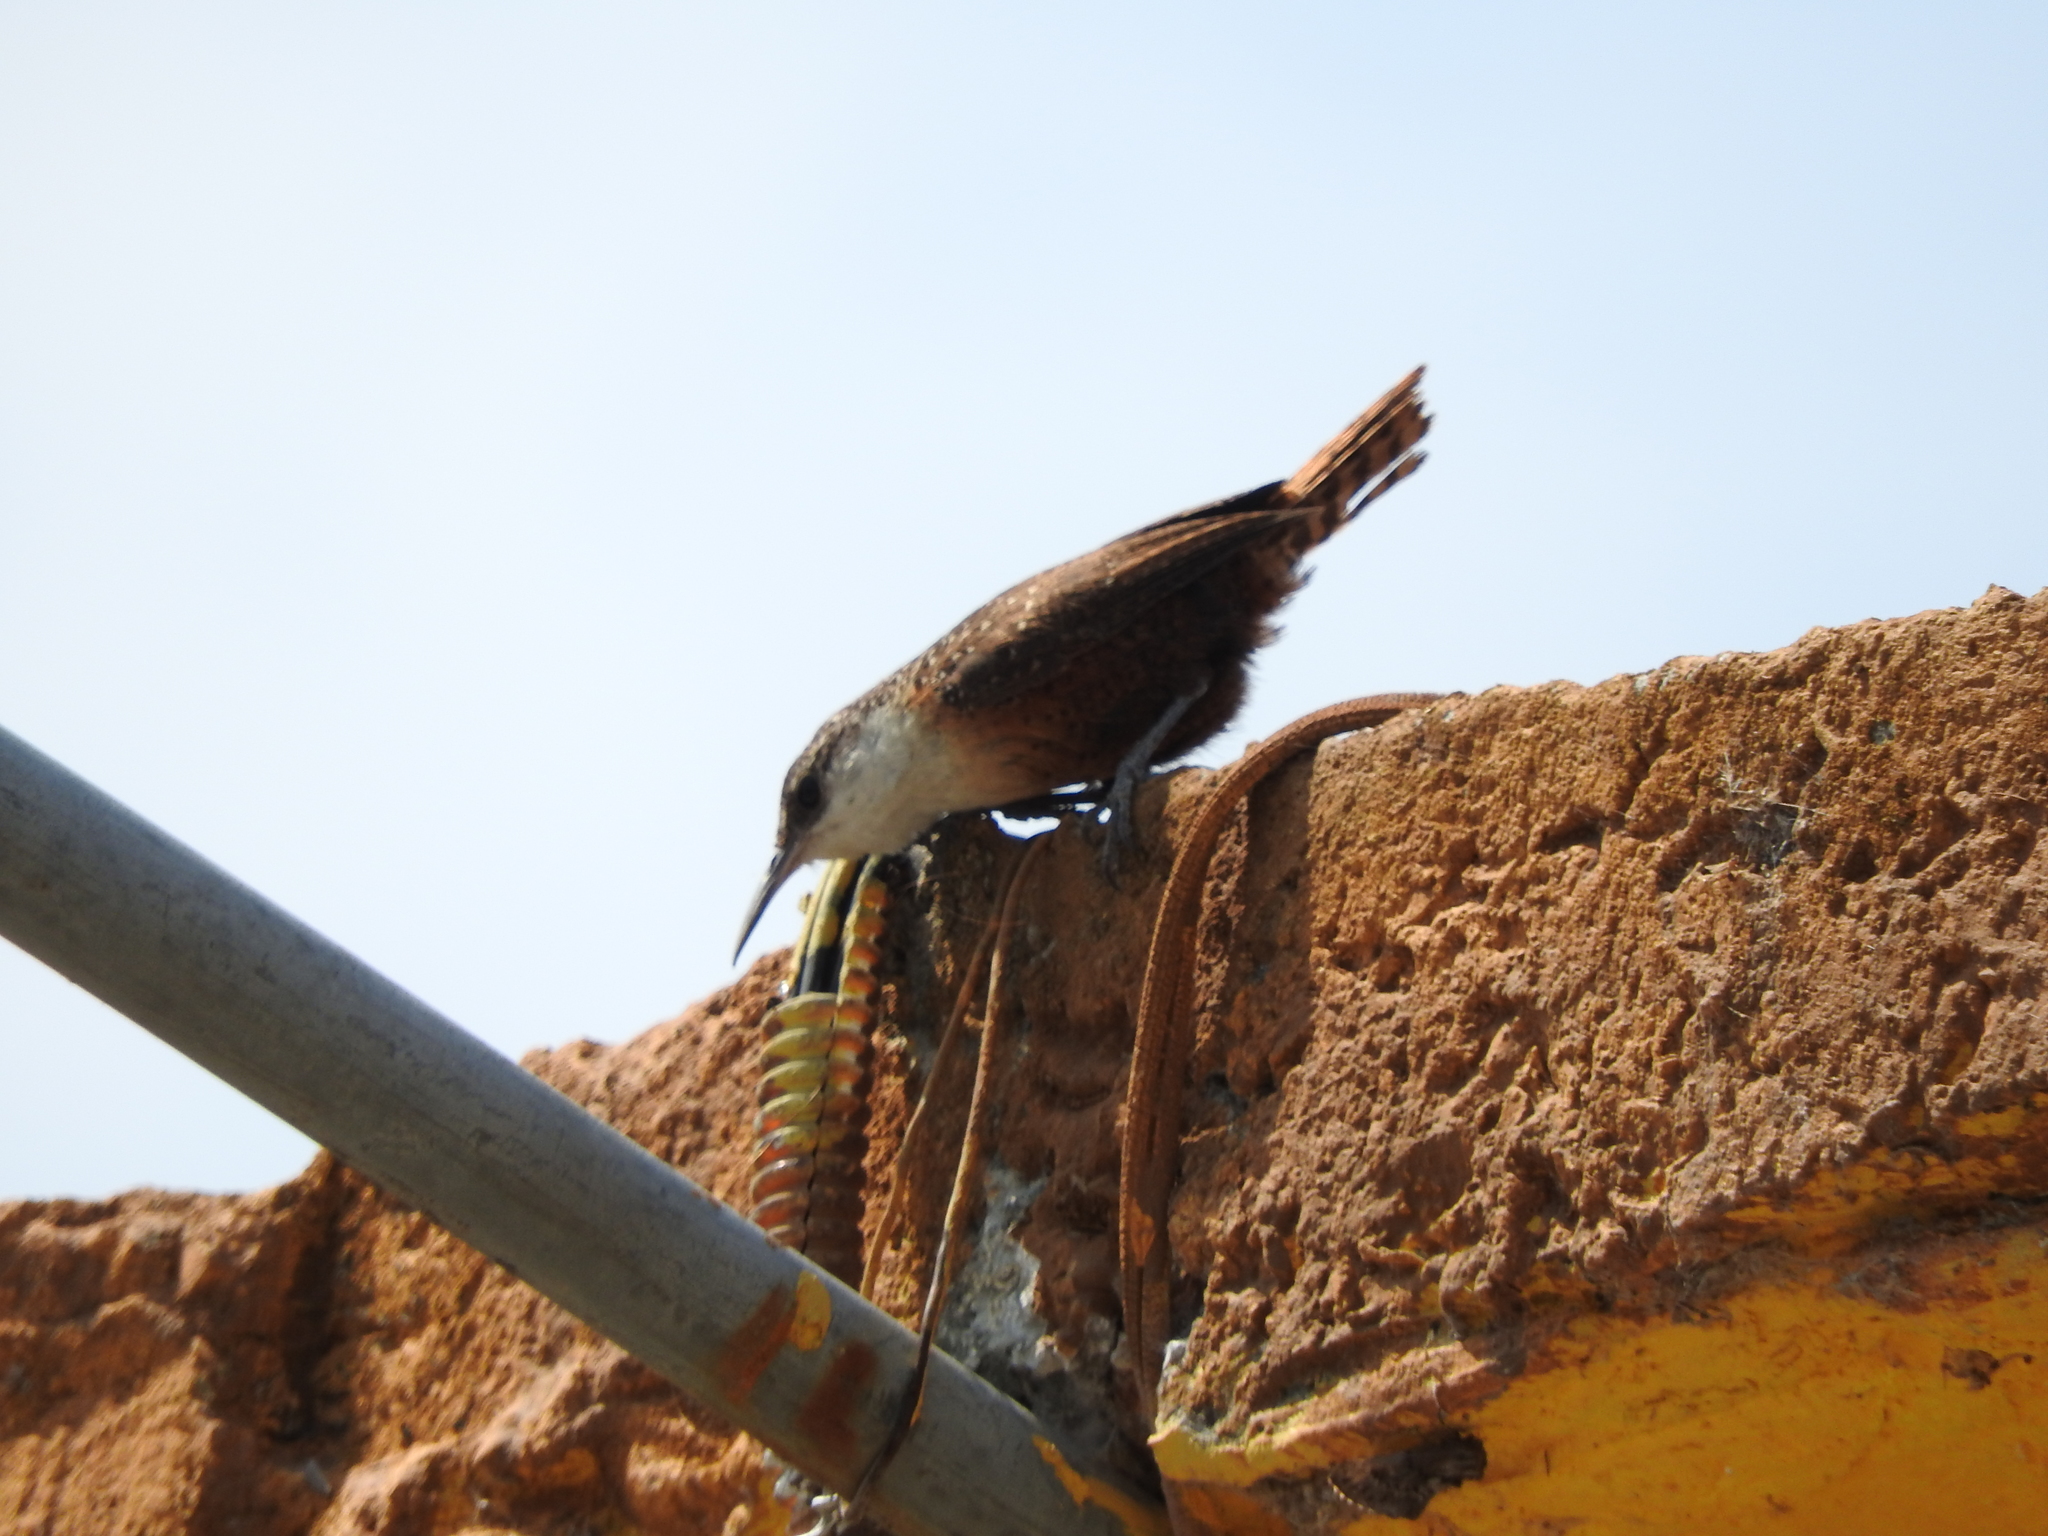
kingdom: Animalia
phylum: Chordata
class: Aves
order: Passeriformes
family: Troglodytidae
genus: Catherpes
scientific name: Catherpes mexicanus
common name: Canyon wren
